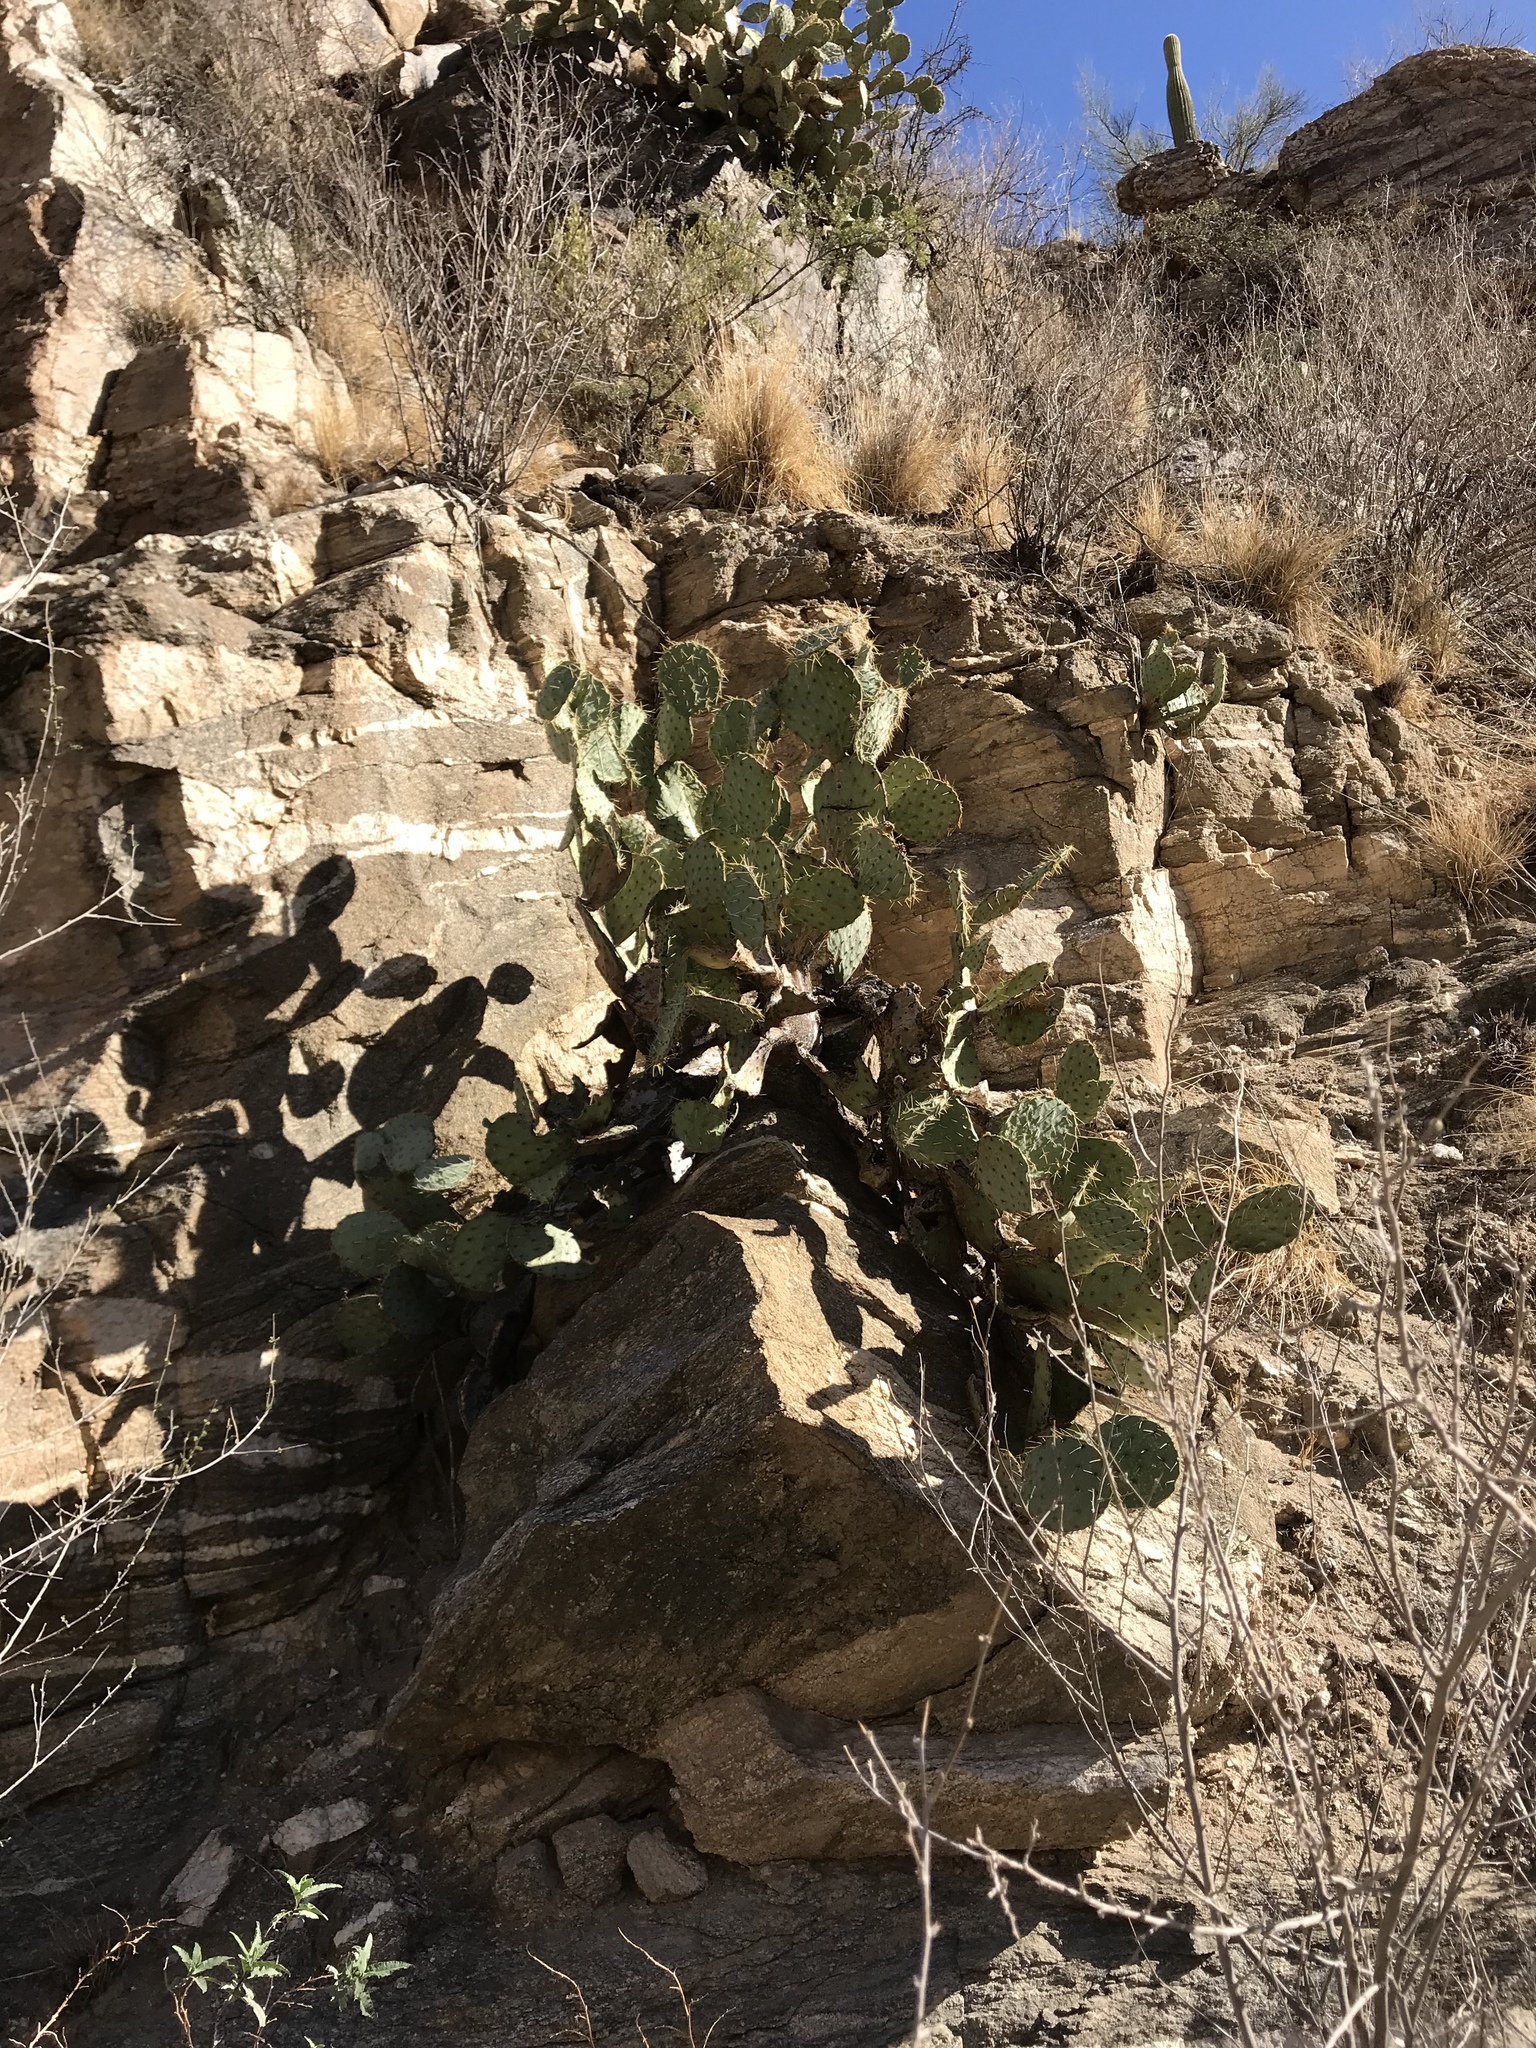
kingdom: Plantae
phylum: Tracheophyta
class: Magnoliopsida
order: Caryophyllales
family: Cactaceae
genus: Opuntia
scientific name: Opuntia engelmannii
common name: Cactus-apple
